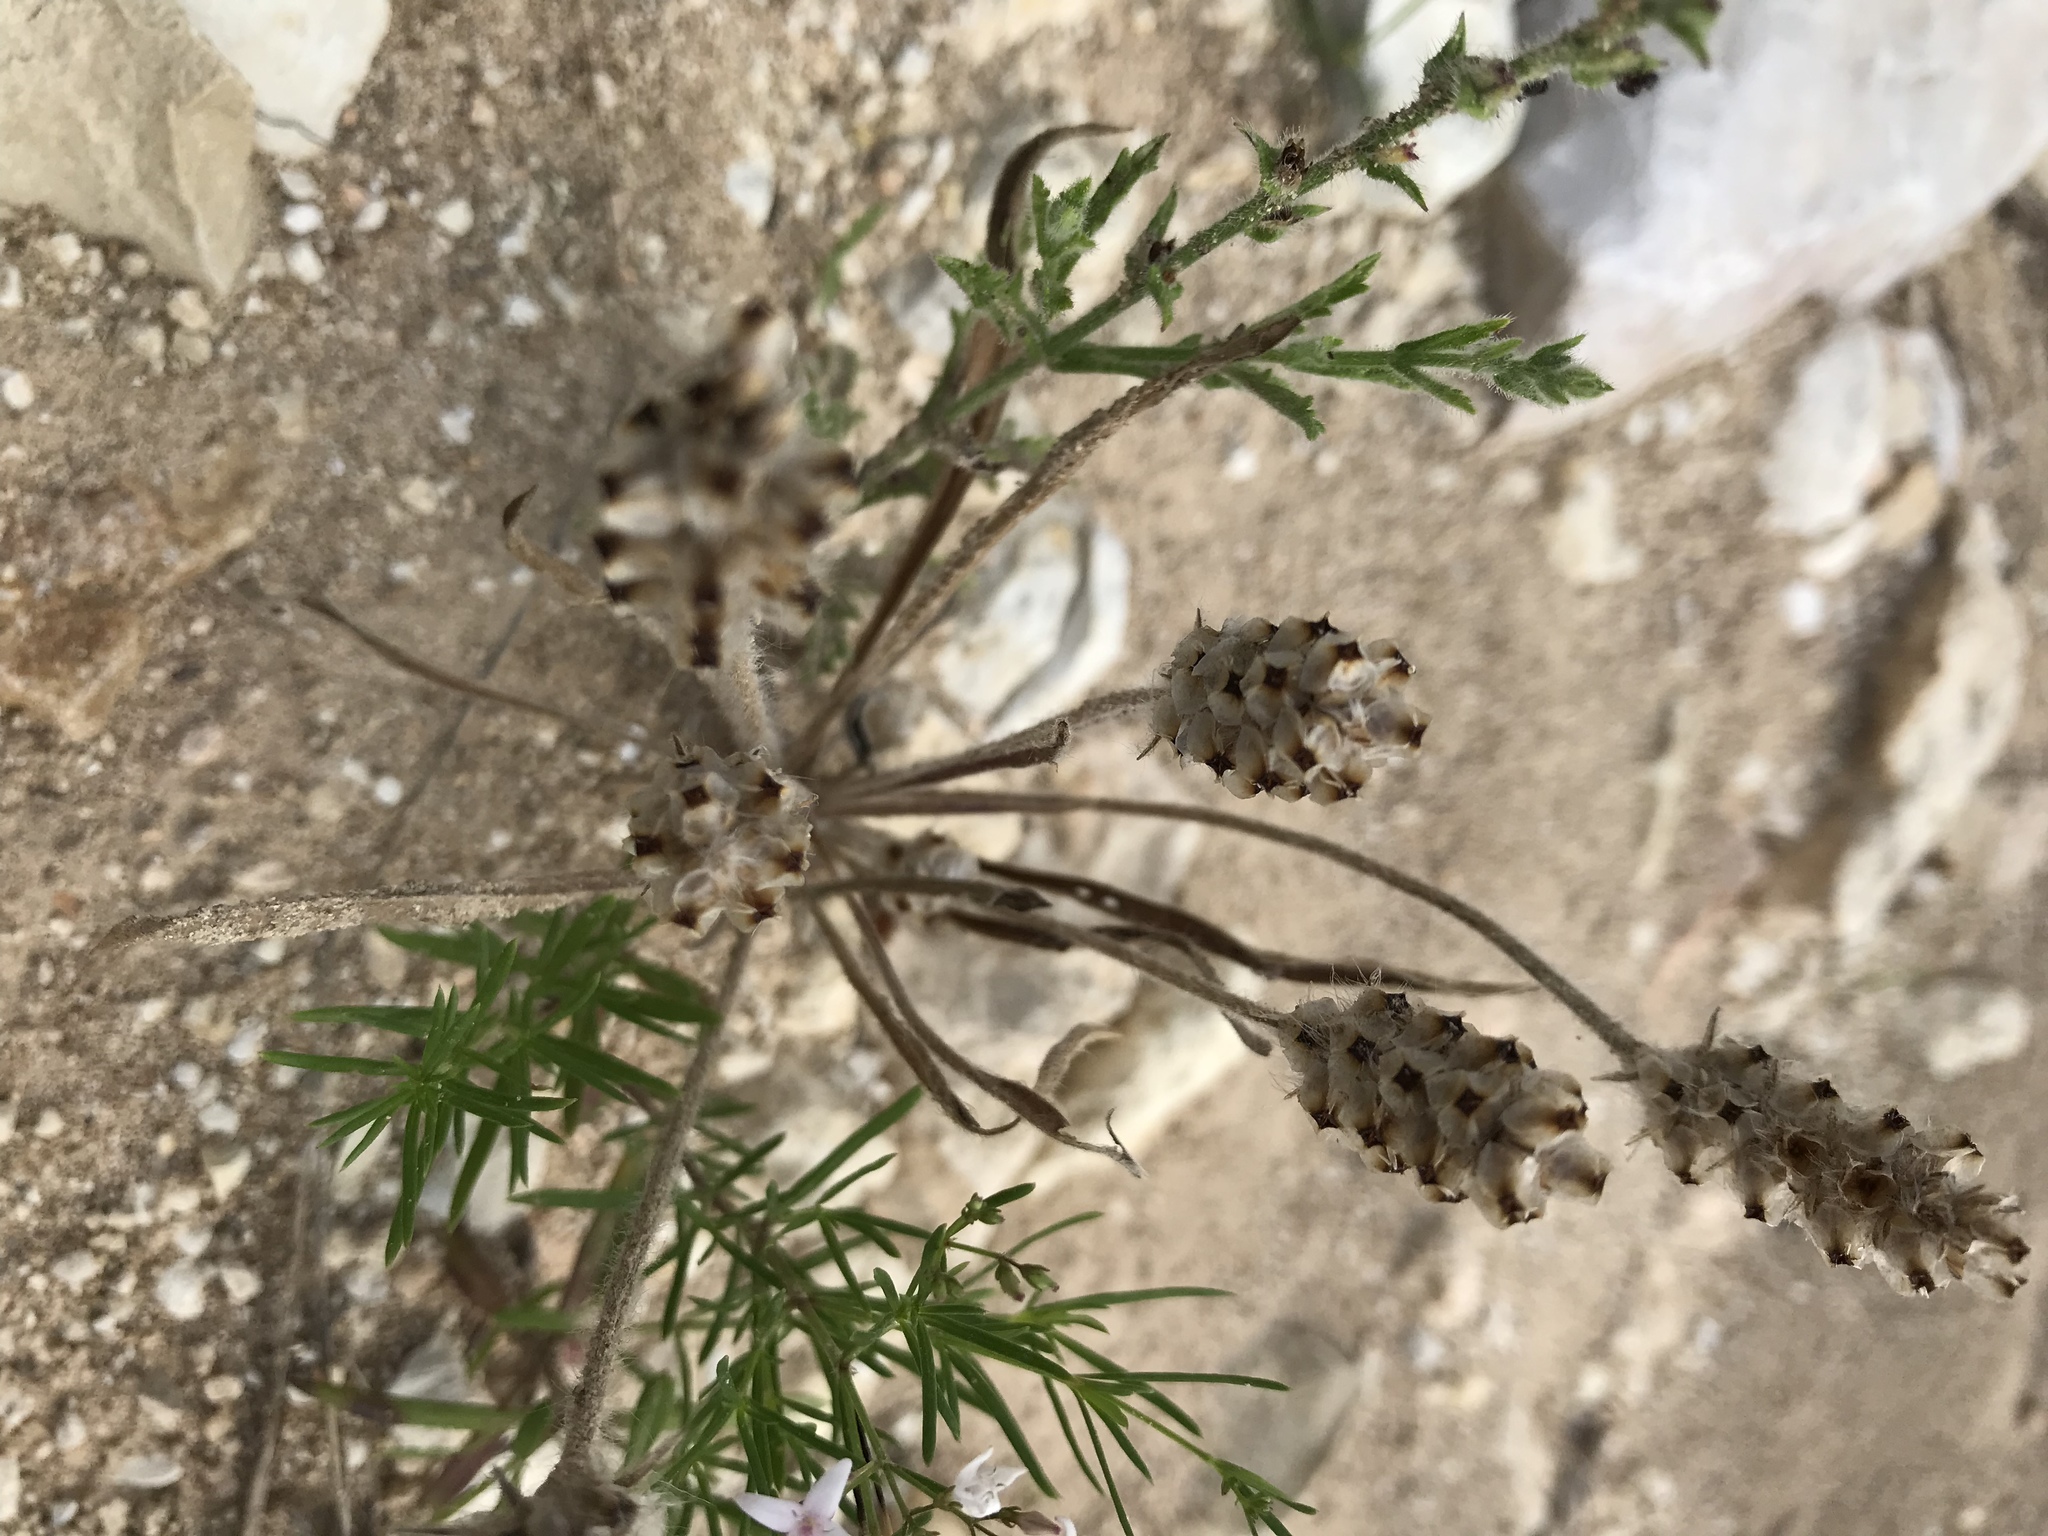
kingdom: Plantae
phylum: Tracheophyta
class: Magnoliopsida
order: Lamiales
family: Plantaginaceae
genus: Plantago
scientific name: Plantago helleri
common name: Heller's plantain
